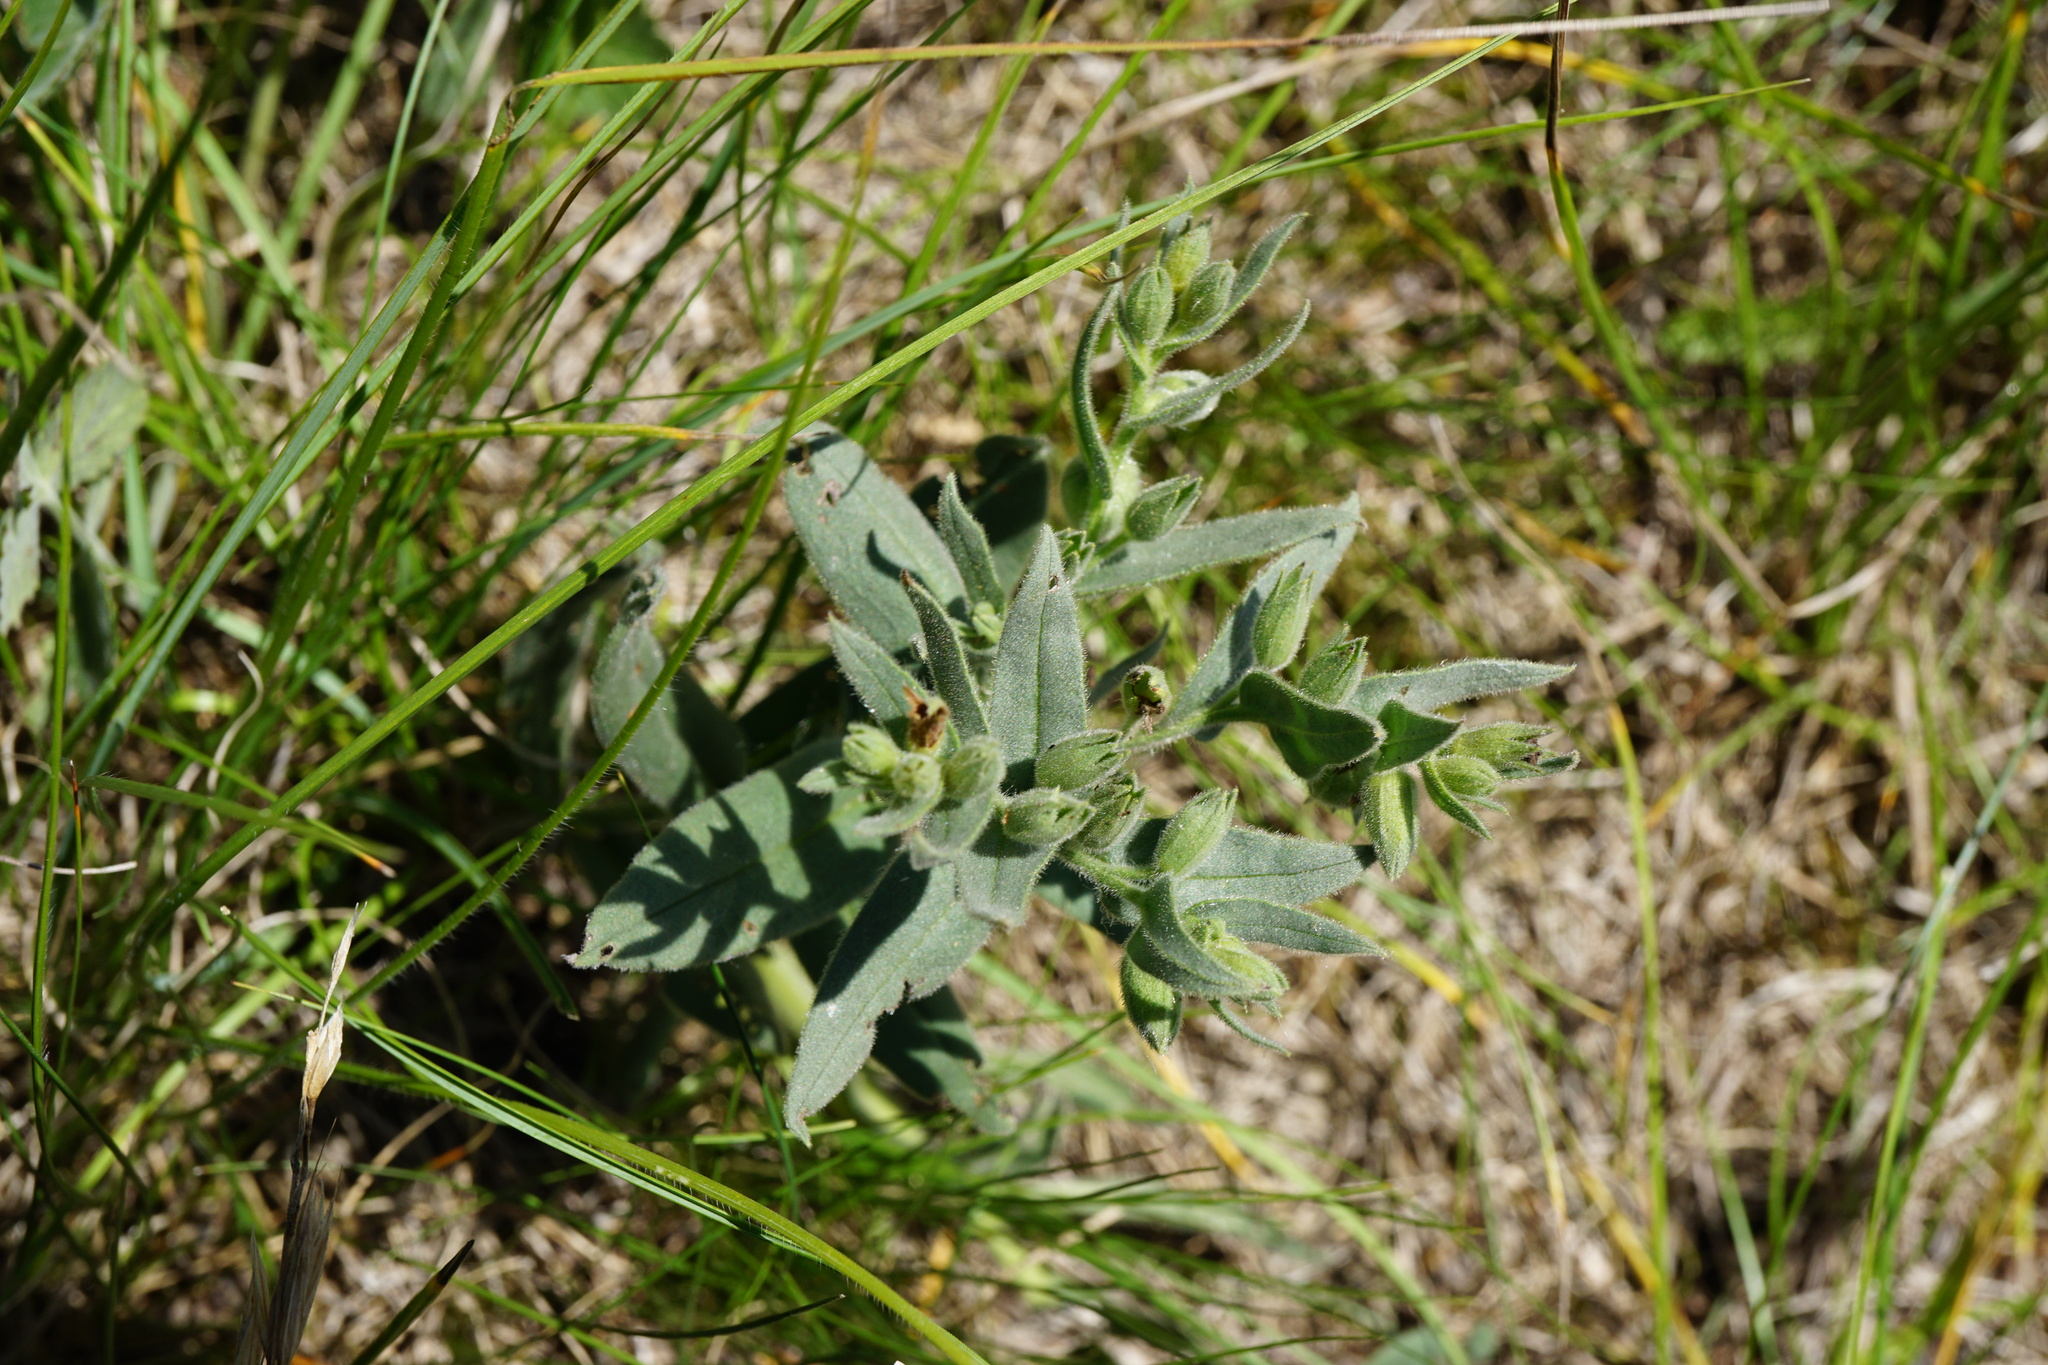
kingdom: Plantae
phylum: Tracheophyta
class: Magnoliopsida
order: Boraginales
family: Boraginaceae
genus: Nonea
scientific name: Nonea pulla
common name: Brown nonea
